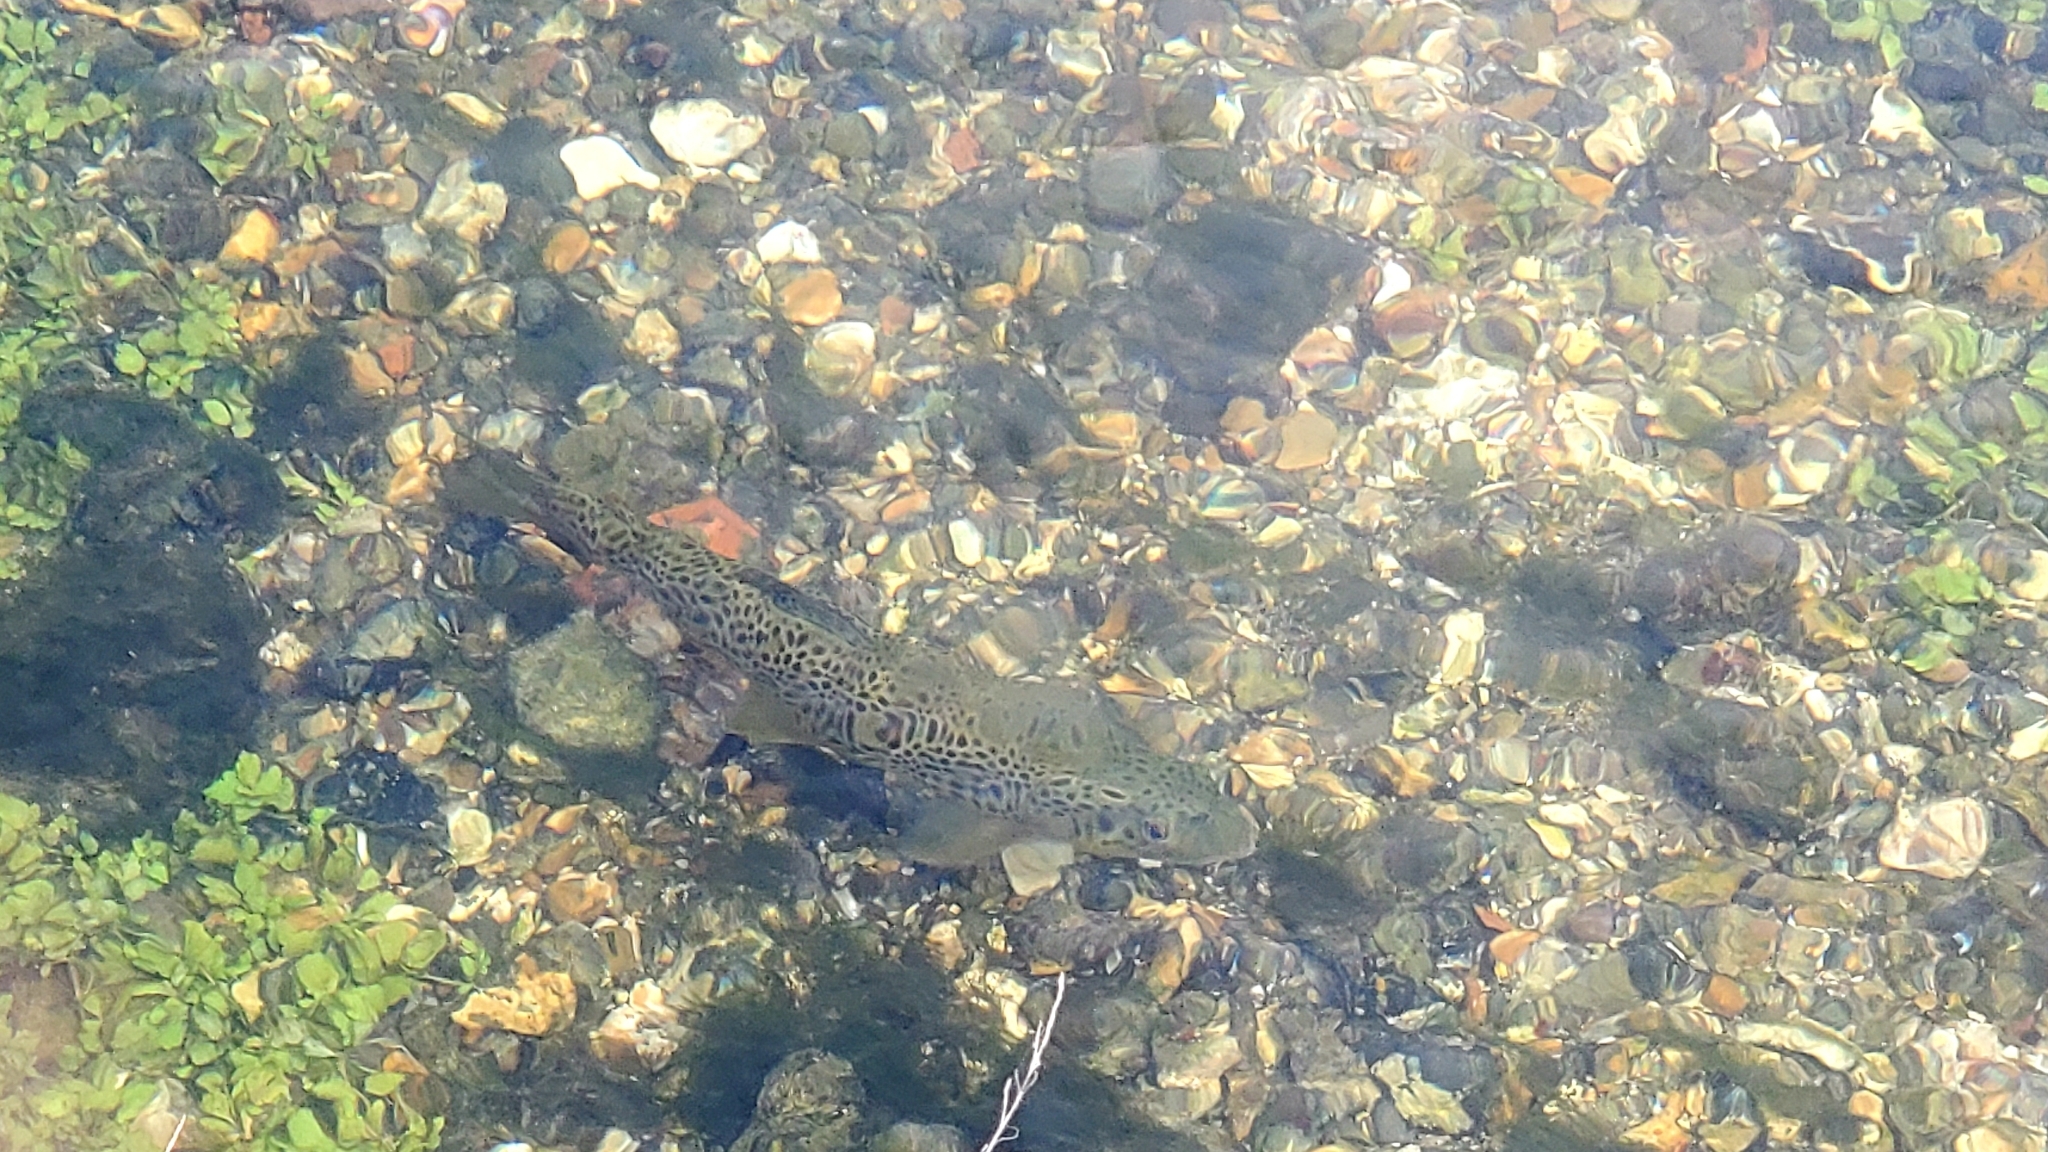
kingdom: Animalia
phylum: Chordata
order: Salmoniformes
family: Salmonidae
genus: Salmo
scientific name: Salmo trutta
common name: Brown trout
